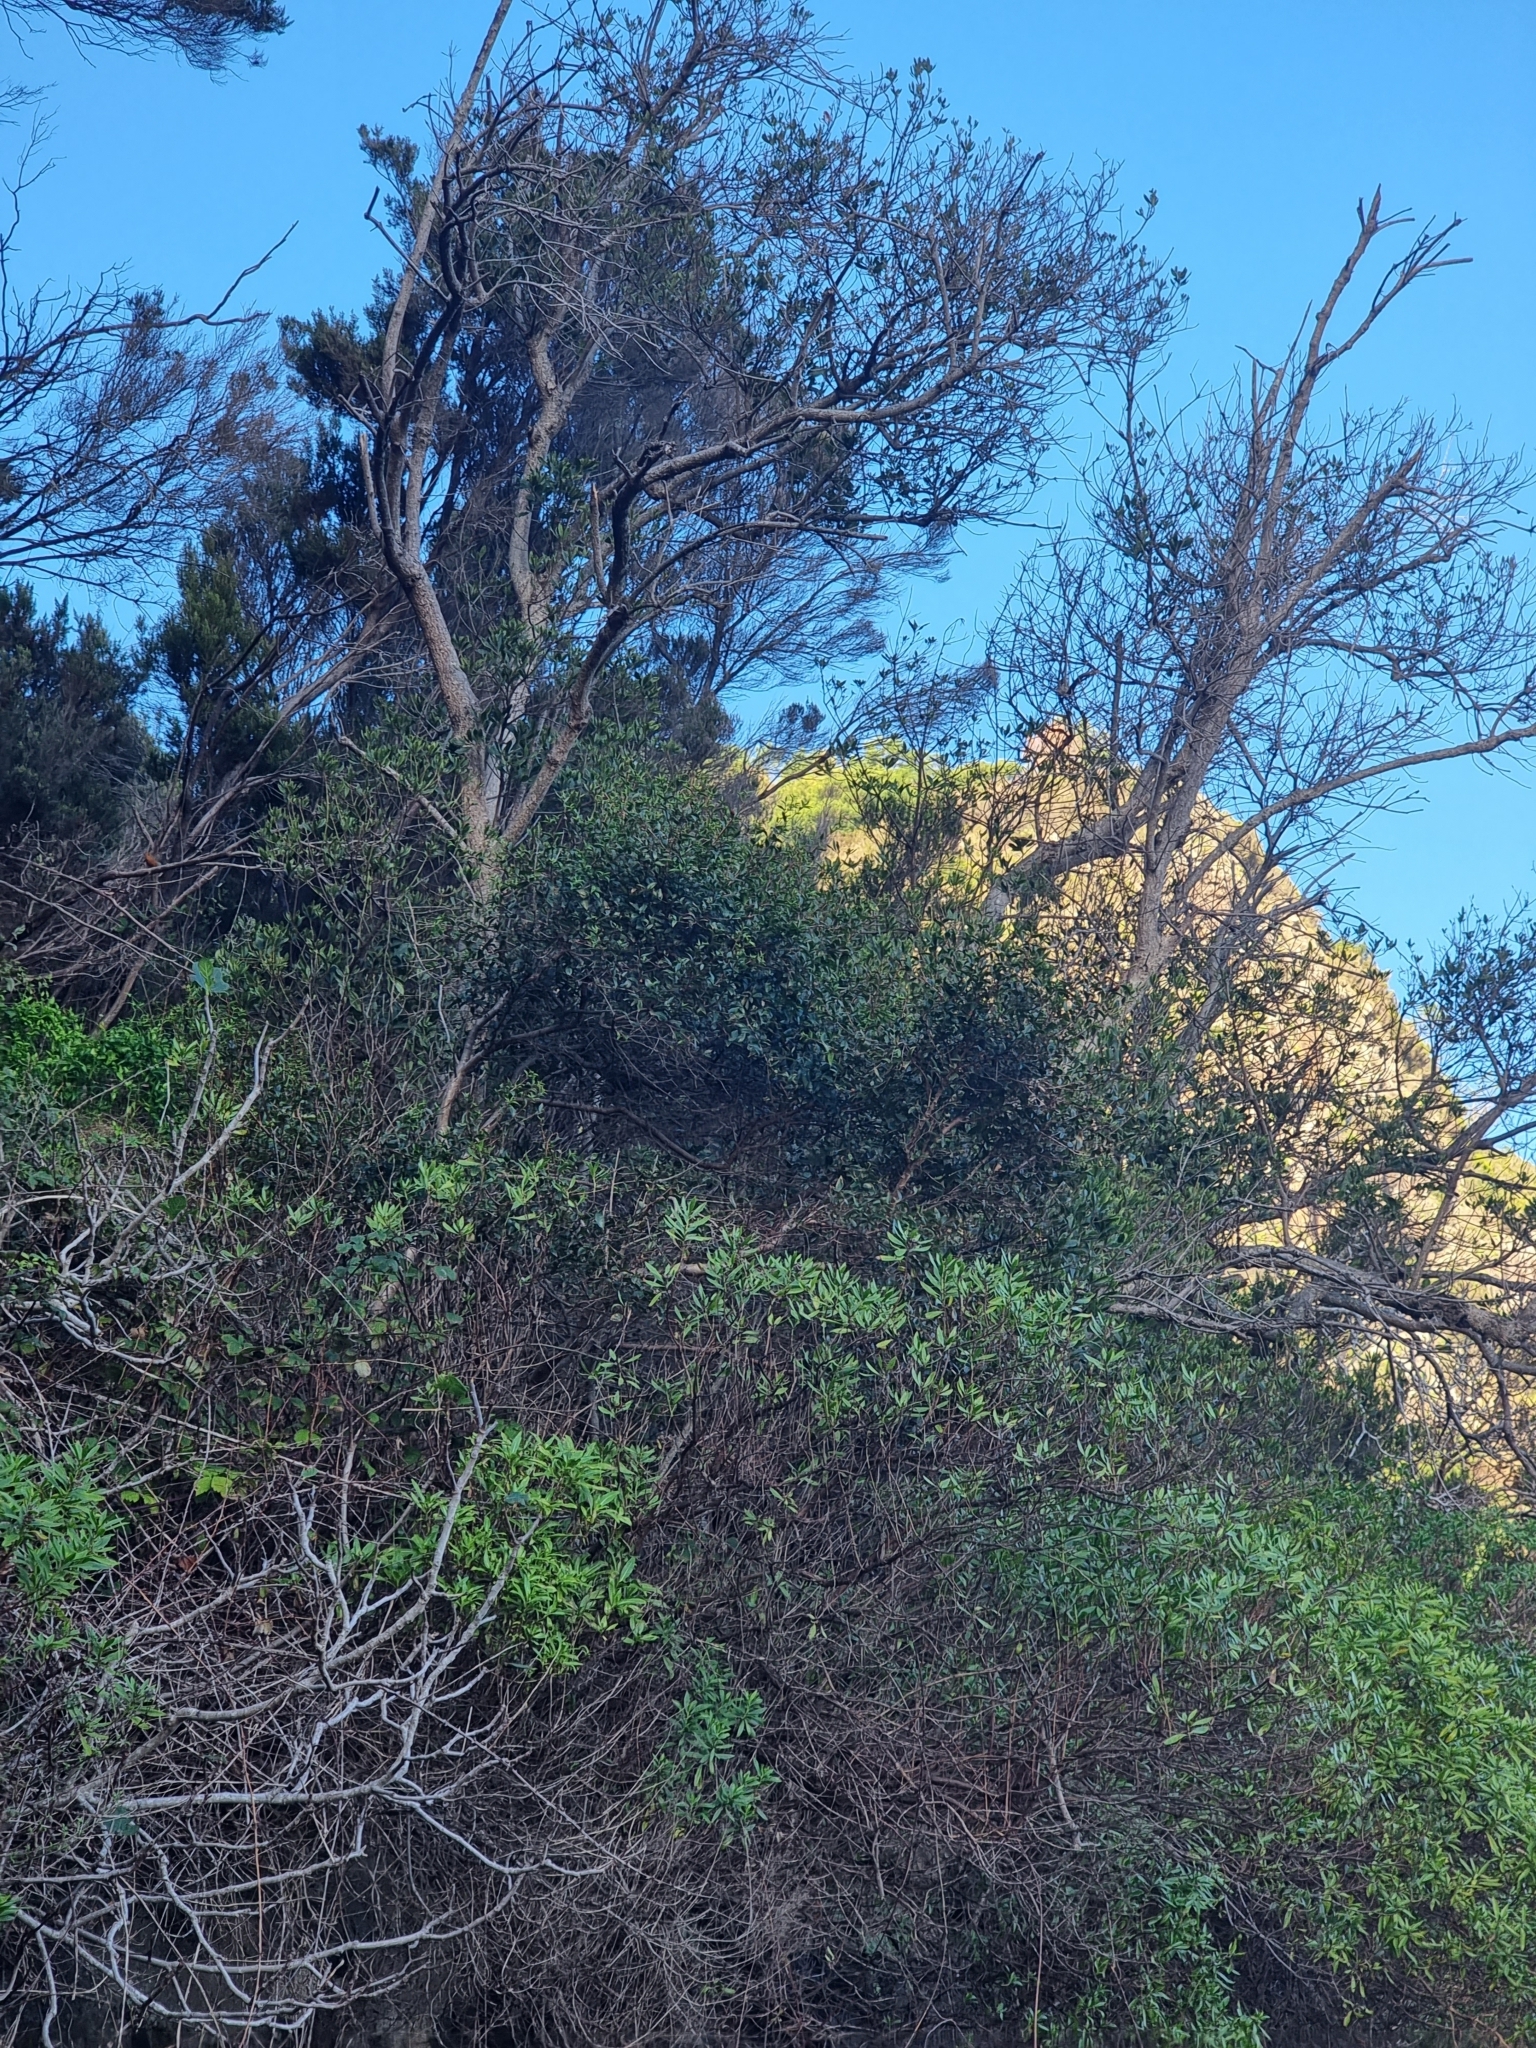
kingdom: Plantae
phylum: Tracheophyta
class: Magnoliopsida
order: Myrtales
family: Myrtaceae
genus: Myrtus
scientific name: Myrtus communis
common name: Myrtle
